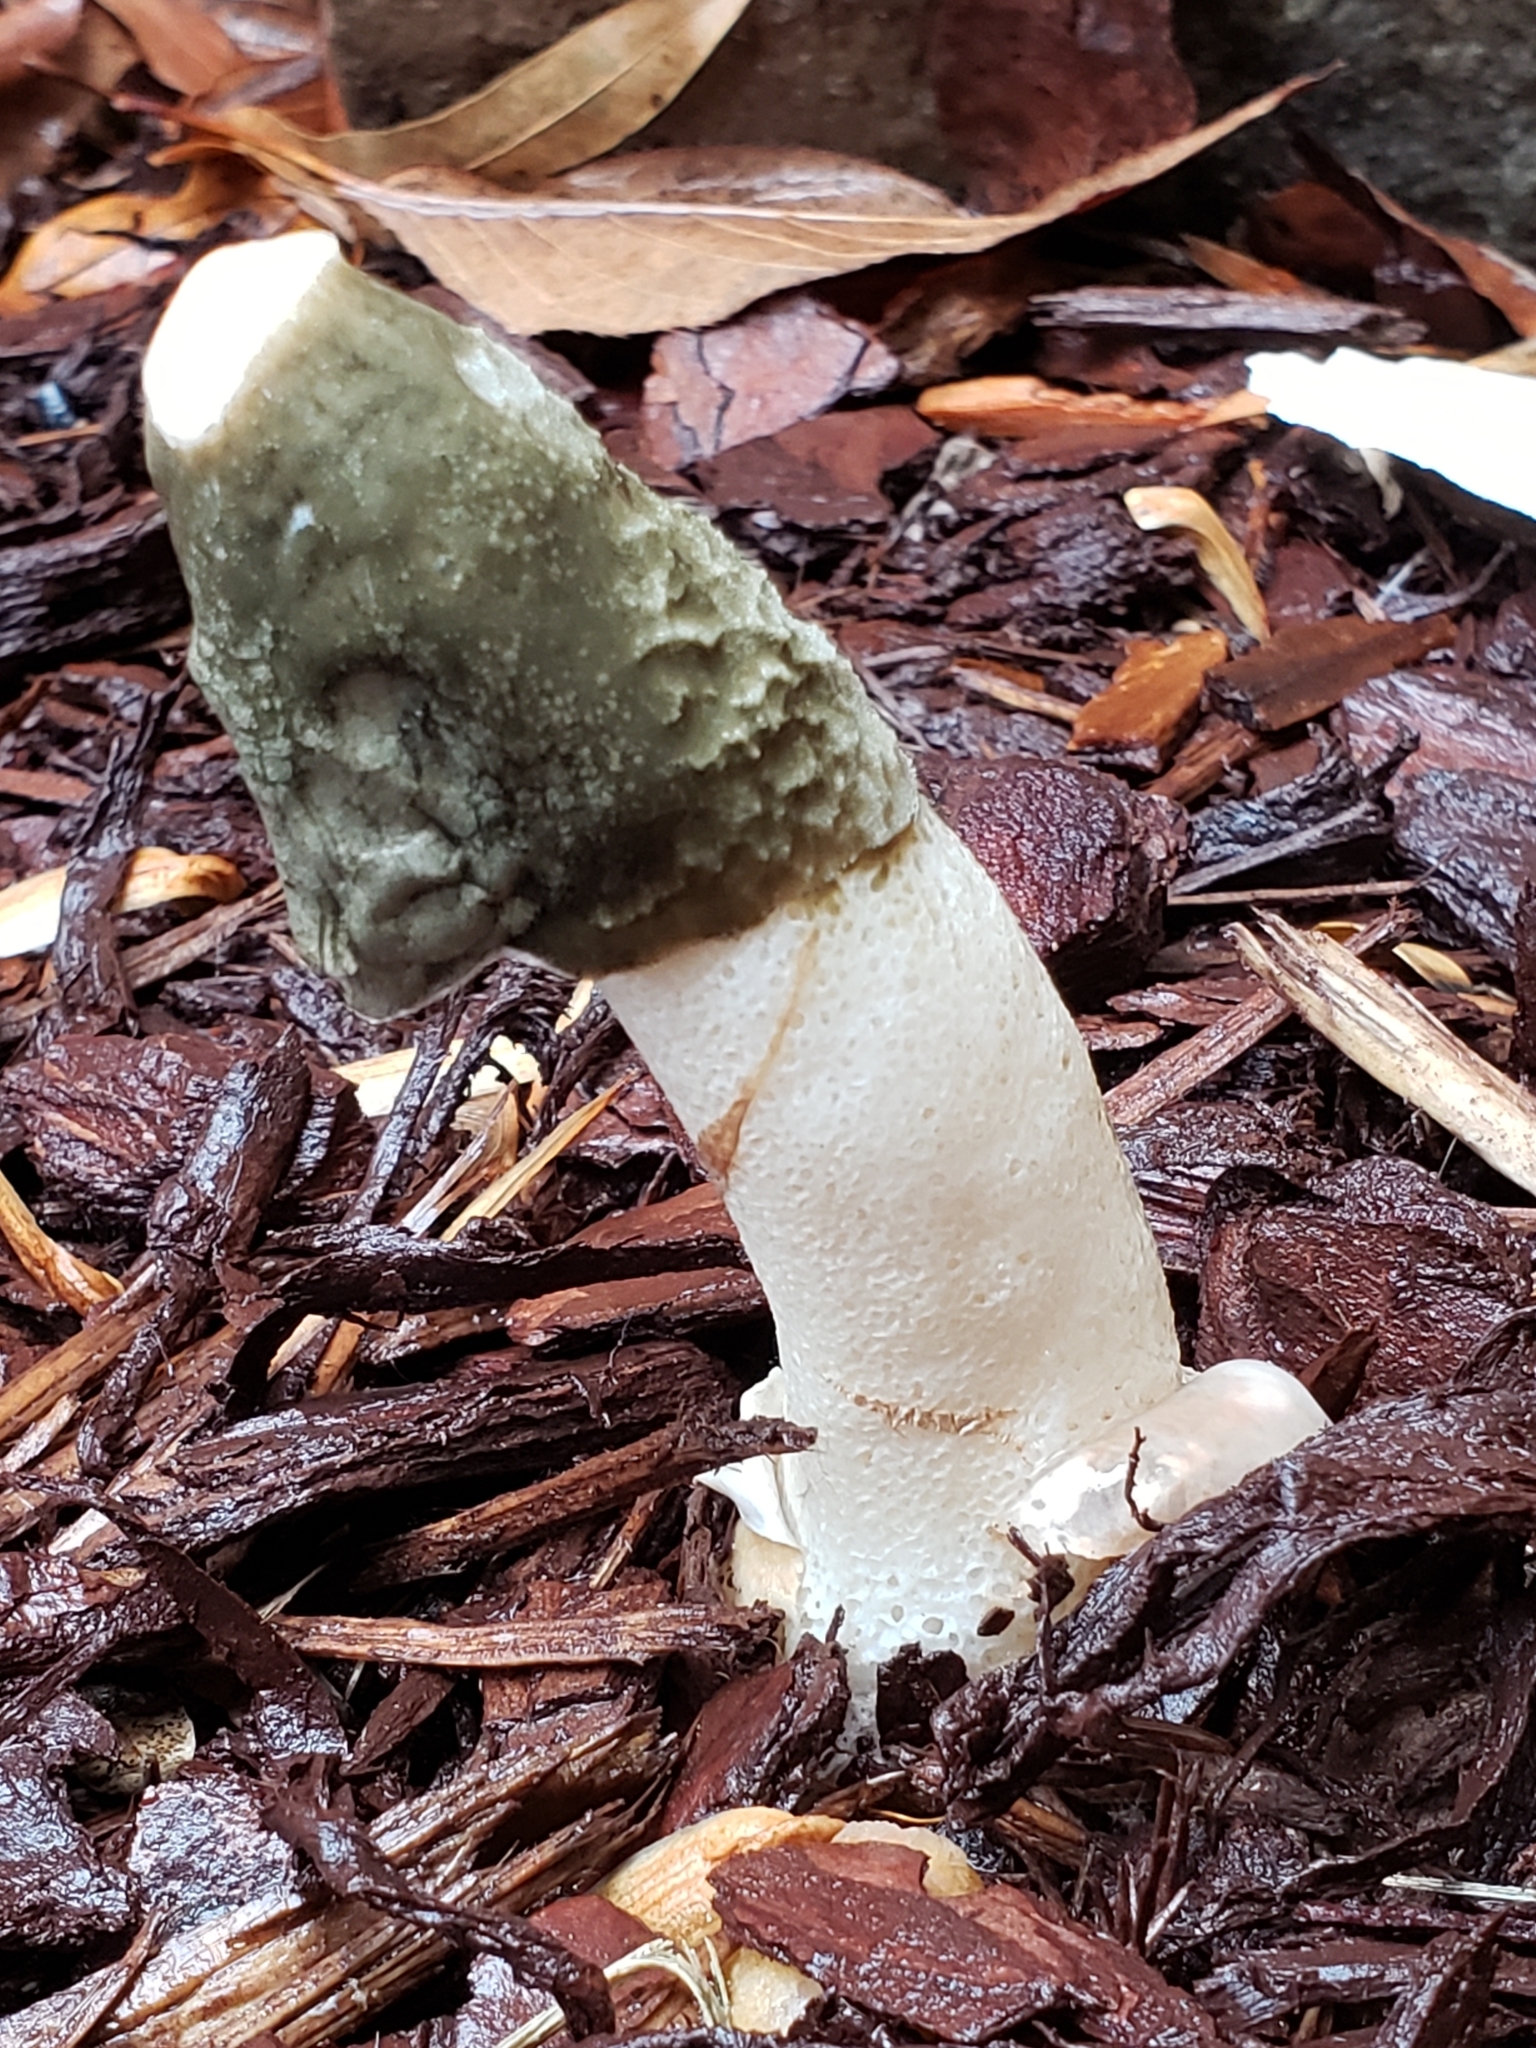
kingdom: Fungi
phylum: Basidiomycota
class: Agaricomycetes
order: Phallales
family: Phallaceae
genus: Phallus
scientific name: Phallus ravenelii
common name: Ravenel's stinkhorn
